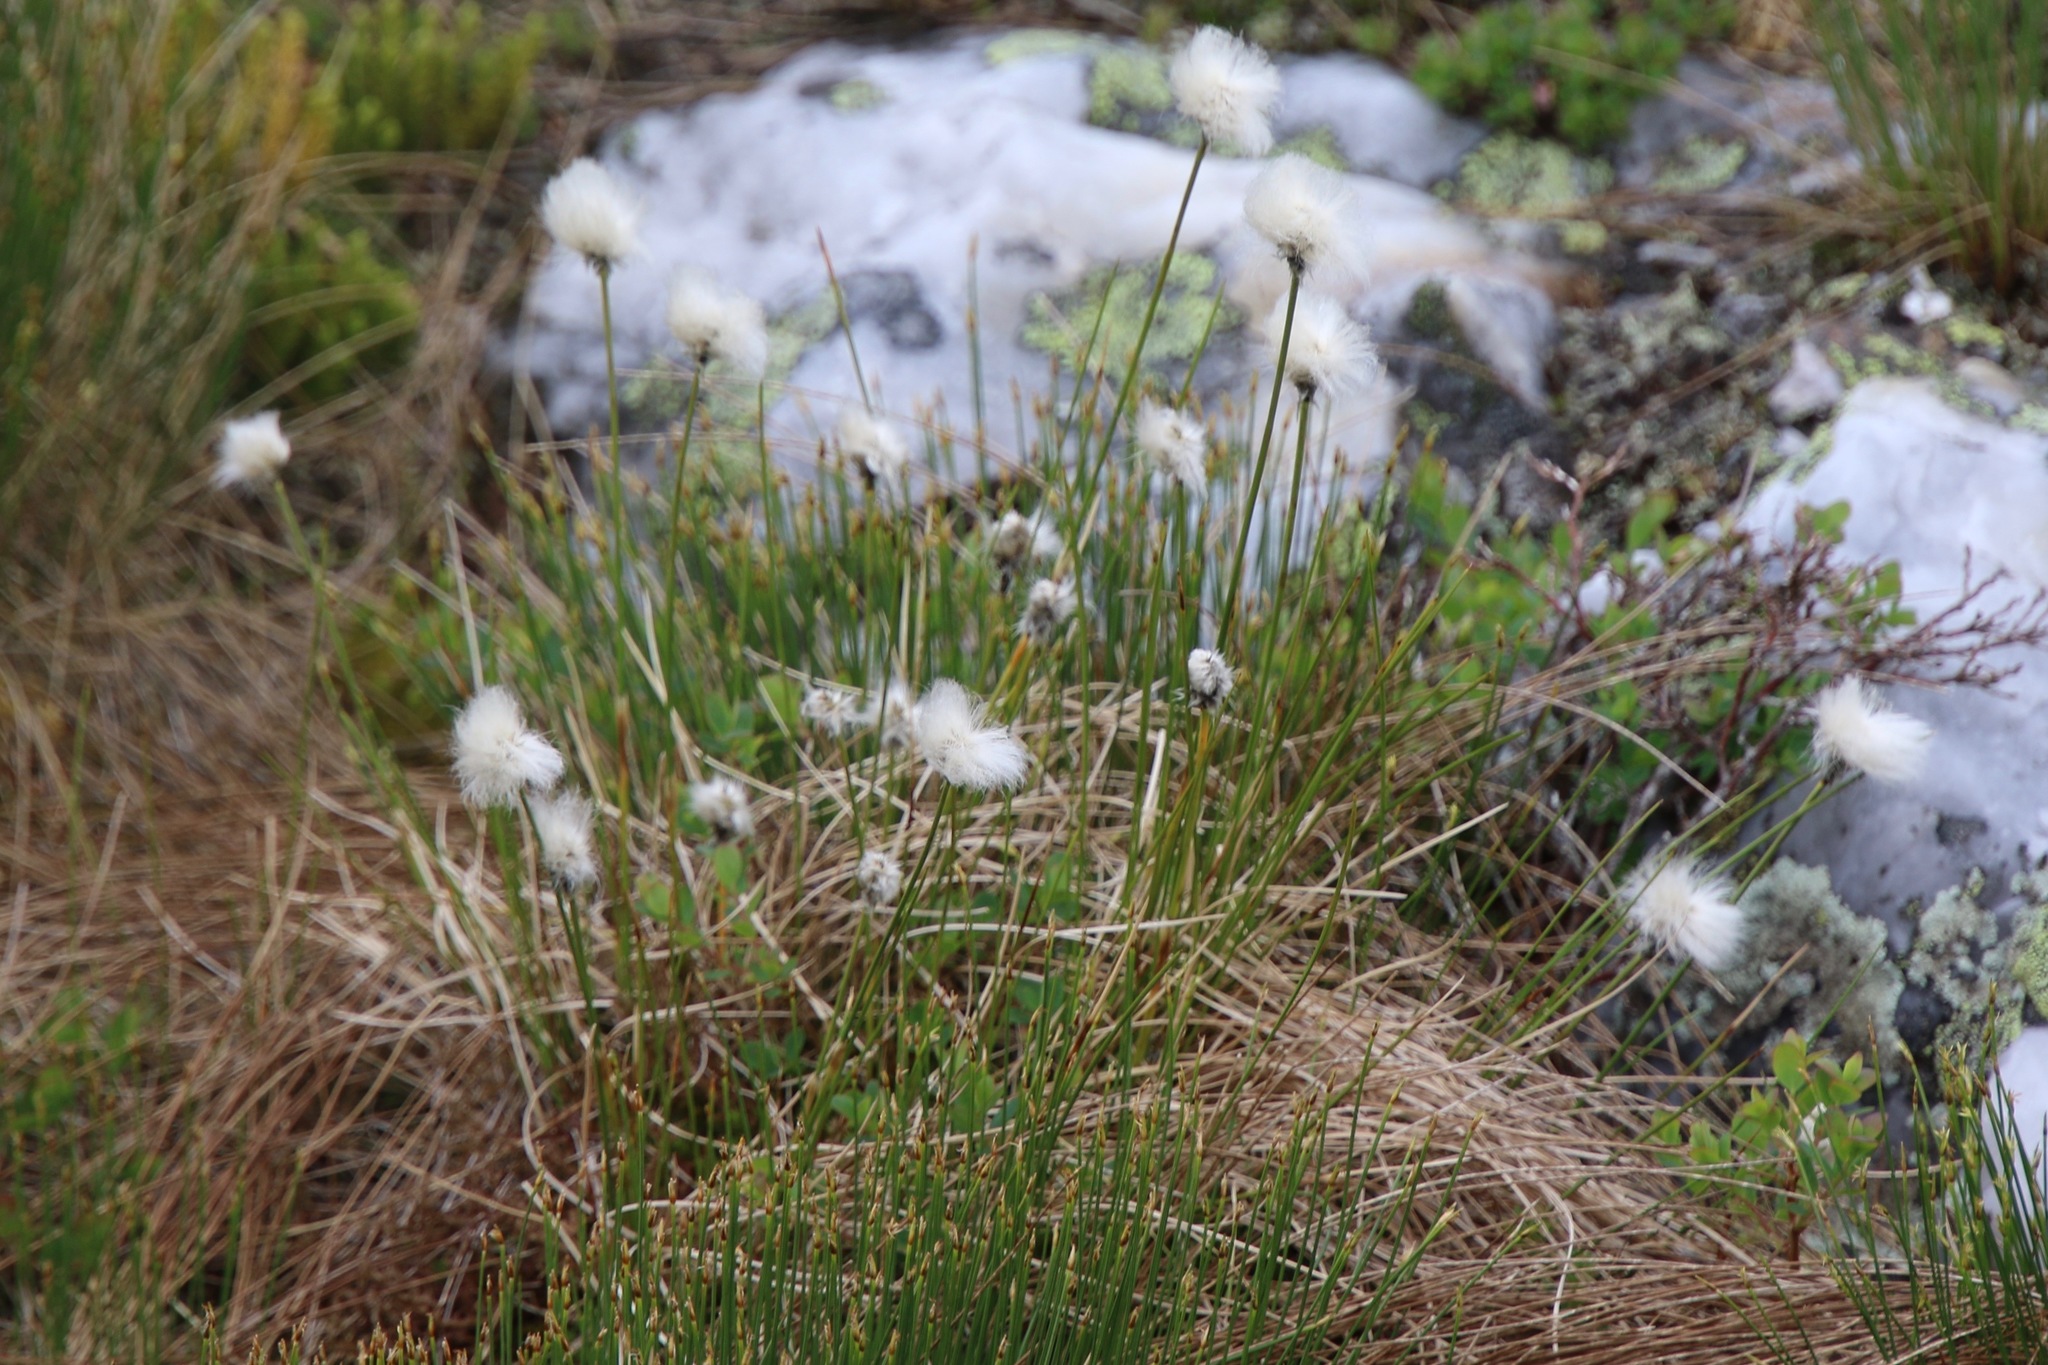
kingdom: Plantae
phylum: Tracheophyta
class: Liliopsida
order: Poales
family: Cyperaceae
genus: Eriophorum
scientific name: Eriophorum vaginatum
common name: Hare's-tail cottongrass
